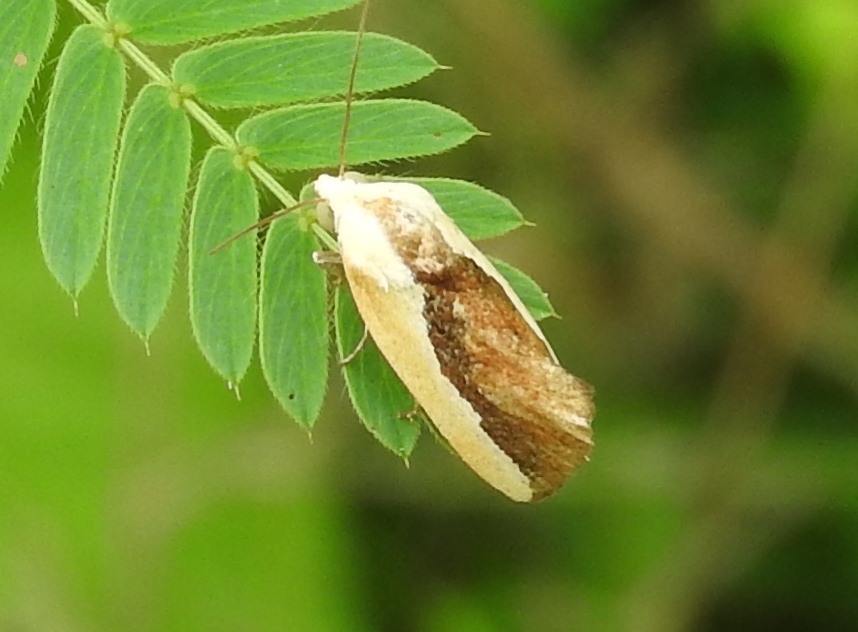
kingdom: Animalia
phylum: Arthropoda
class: Insecta
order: Lepidoptera
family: Noctuidae
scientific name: Noctuidae
